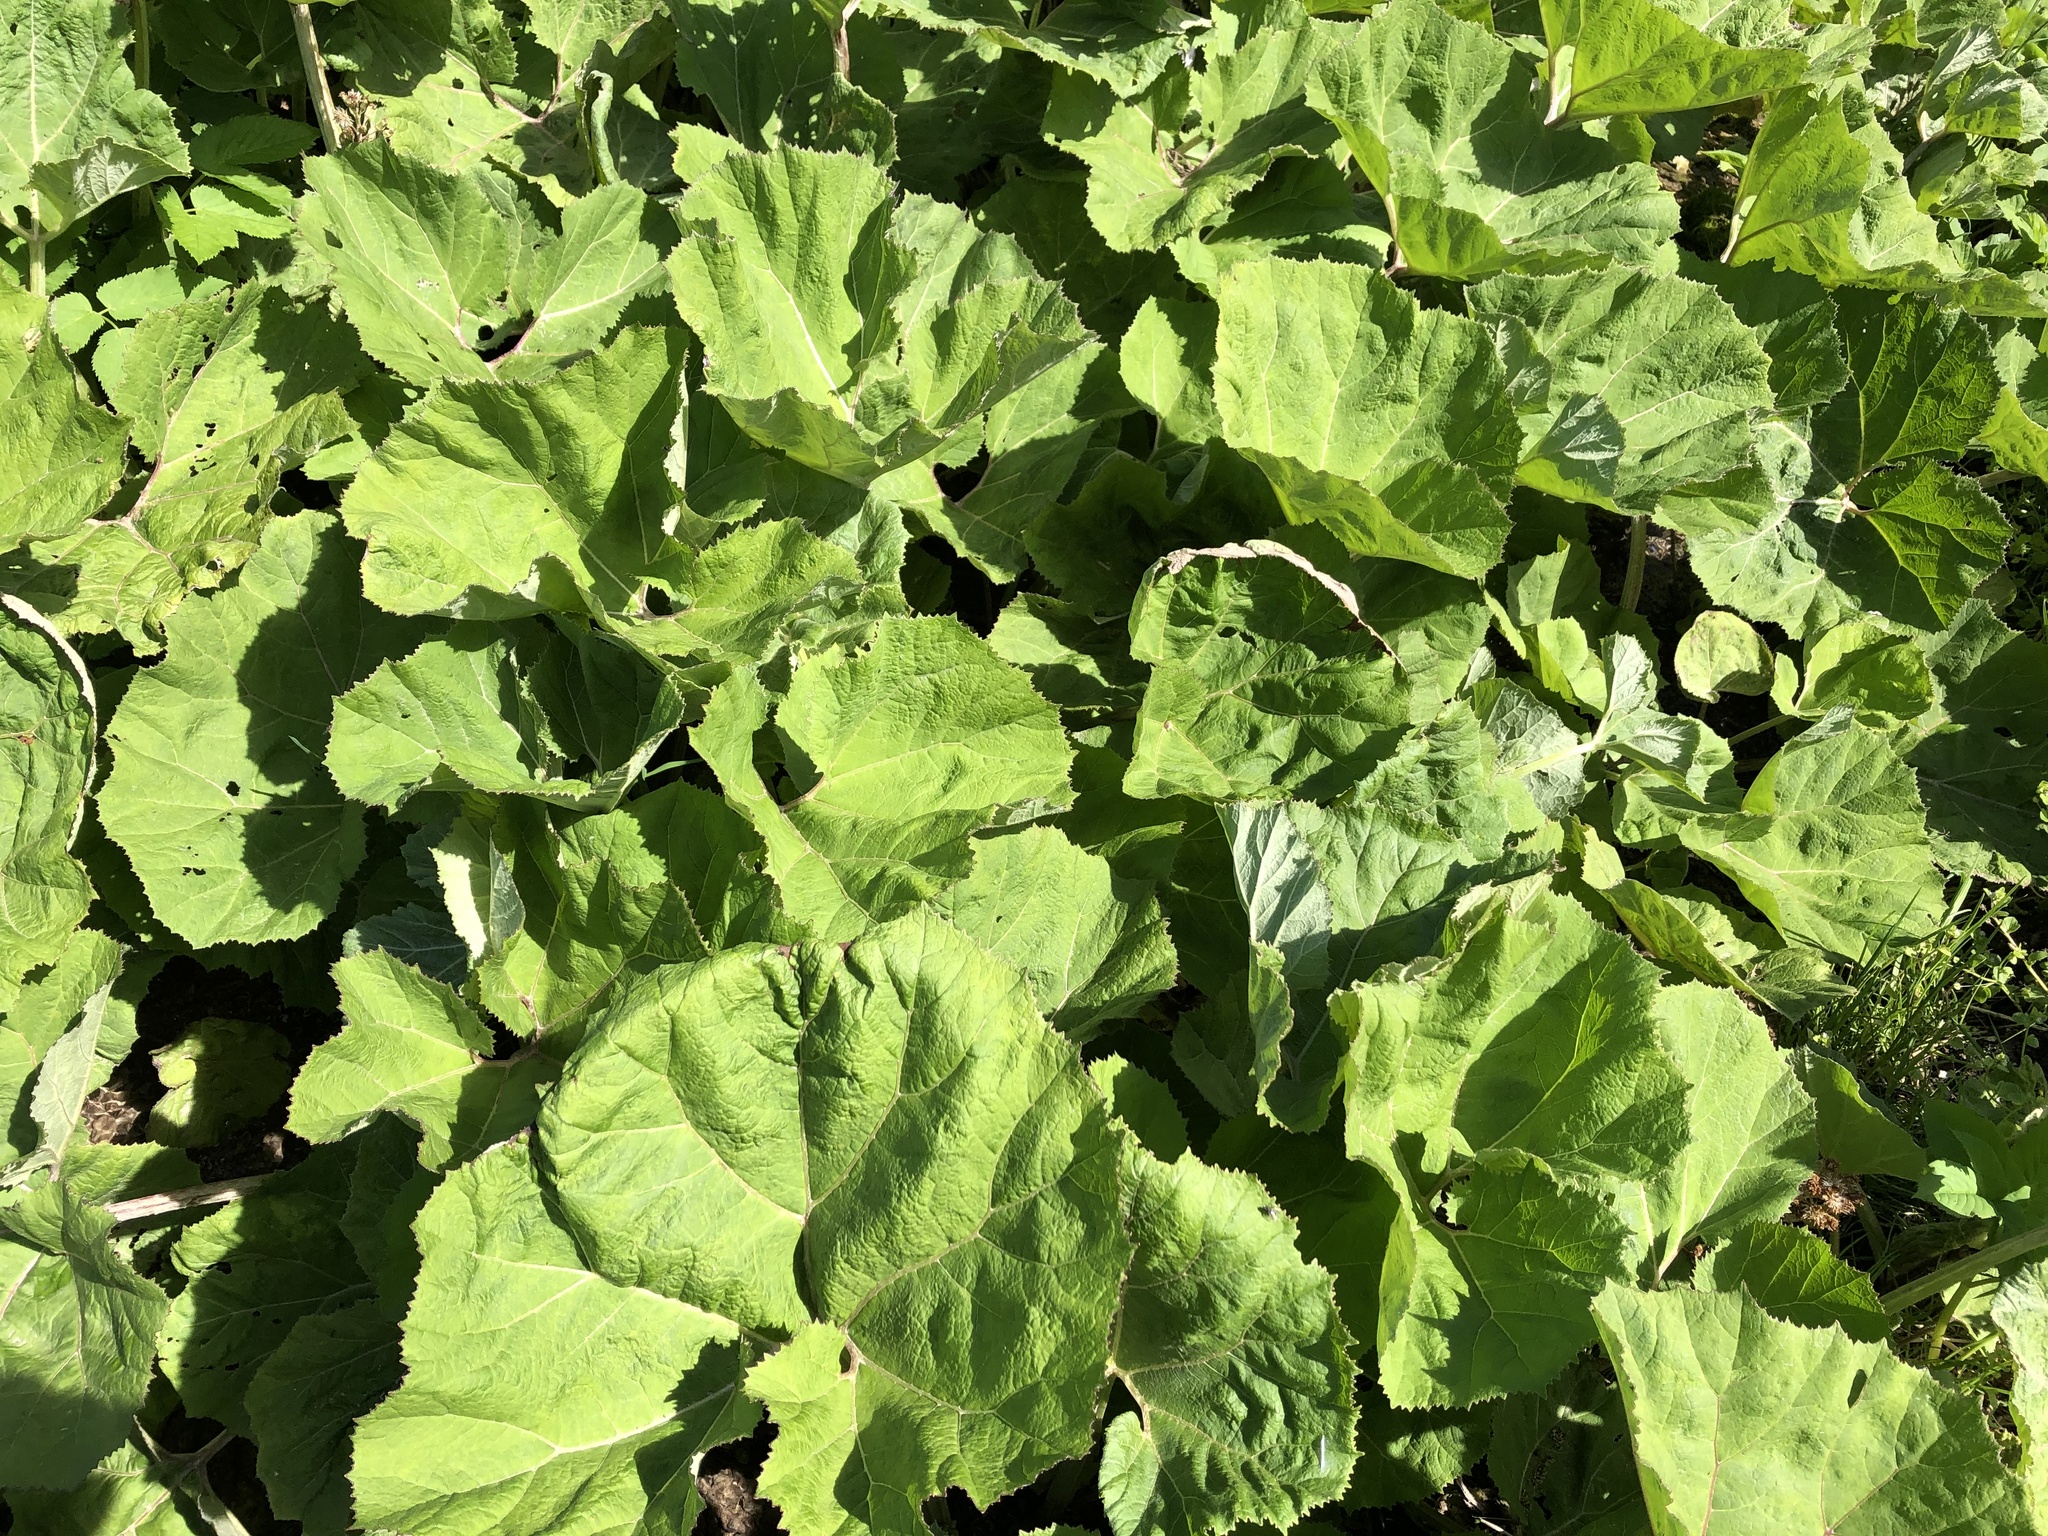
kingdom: Plantae
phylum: Tracheophyta
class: Magnoliopsida
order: Asterales
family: Asteraceae
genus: Petasites
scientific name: Petasites hybridus
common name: Butterbur
